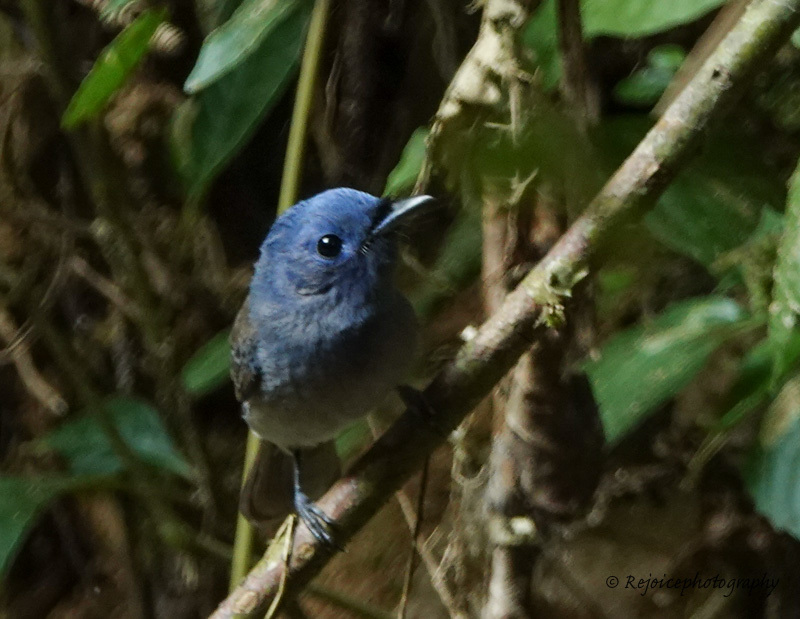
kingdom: Animalia
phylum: Chordata
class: Aves
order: Passeriformes
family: Monarchidae
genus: Hypothymis
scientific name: Hypothymis azurea
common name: Black-naped monarch
